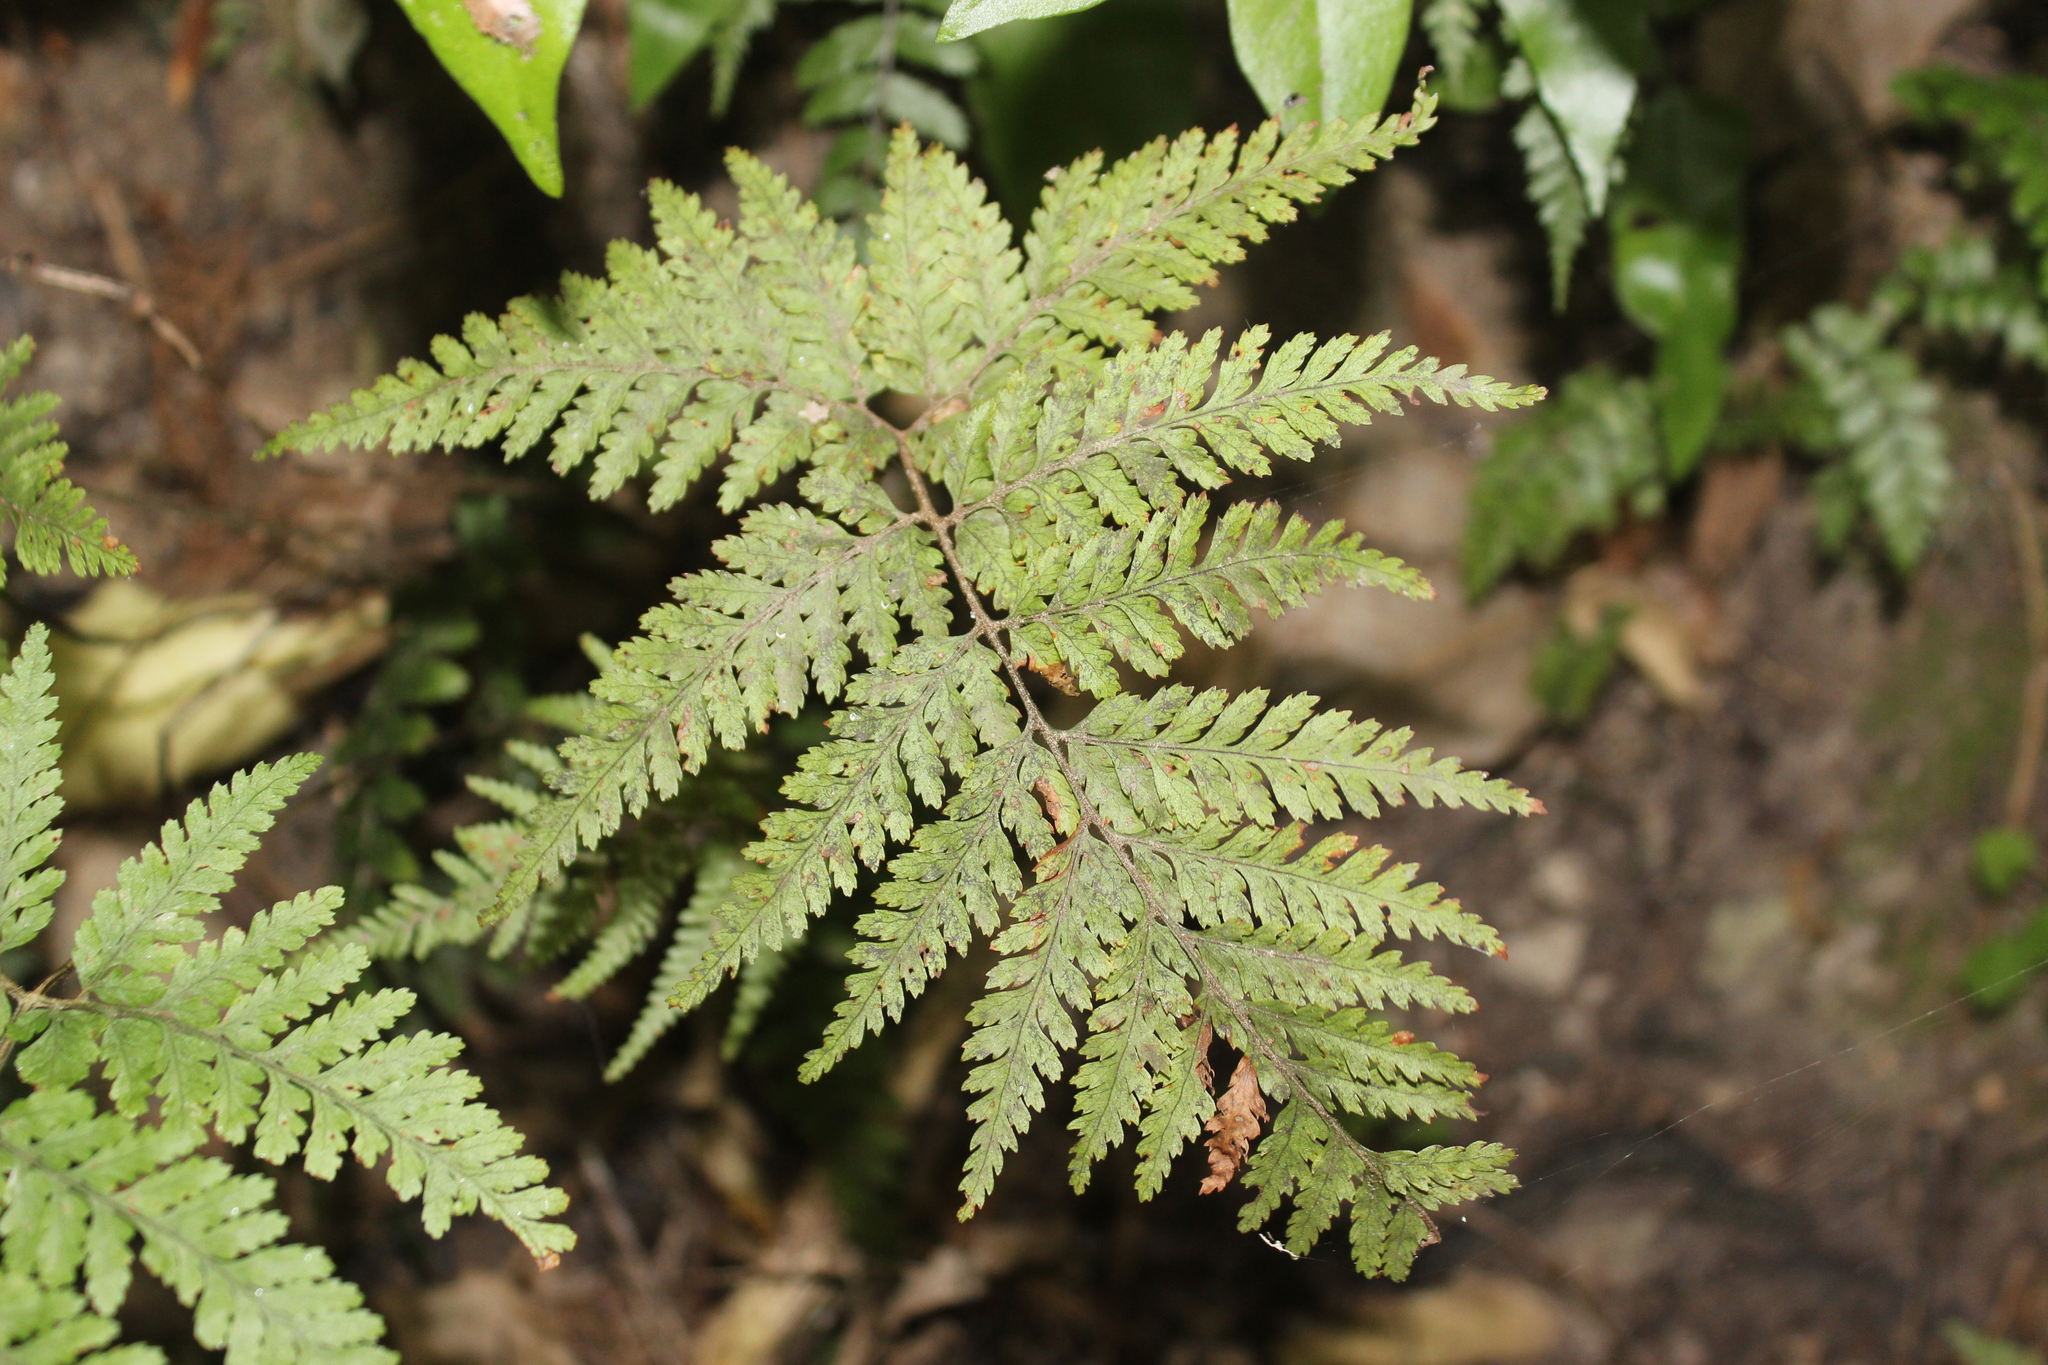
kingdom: Plantae
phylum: Tracheophyta
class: Polypodiopsida
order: Polypodiales
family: Dryopteridaceae
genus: Parapolystichum
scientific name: Parapolystichum microsorum
